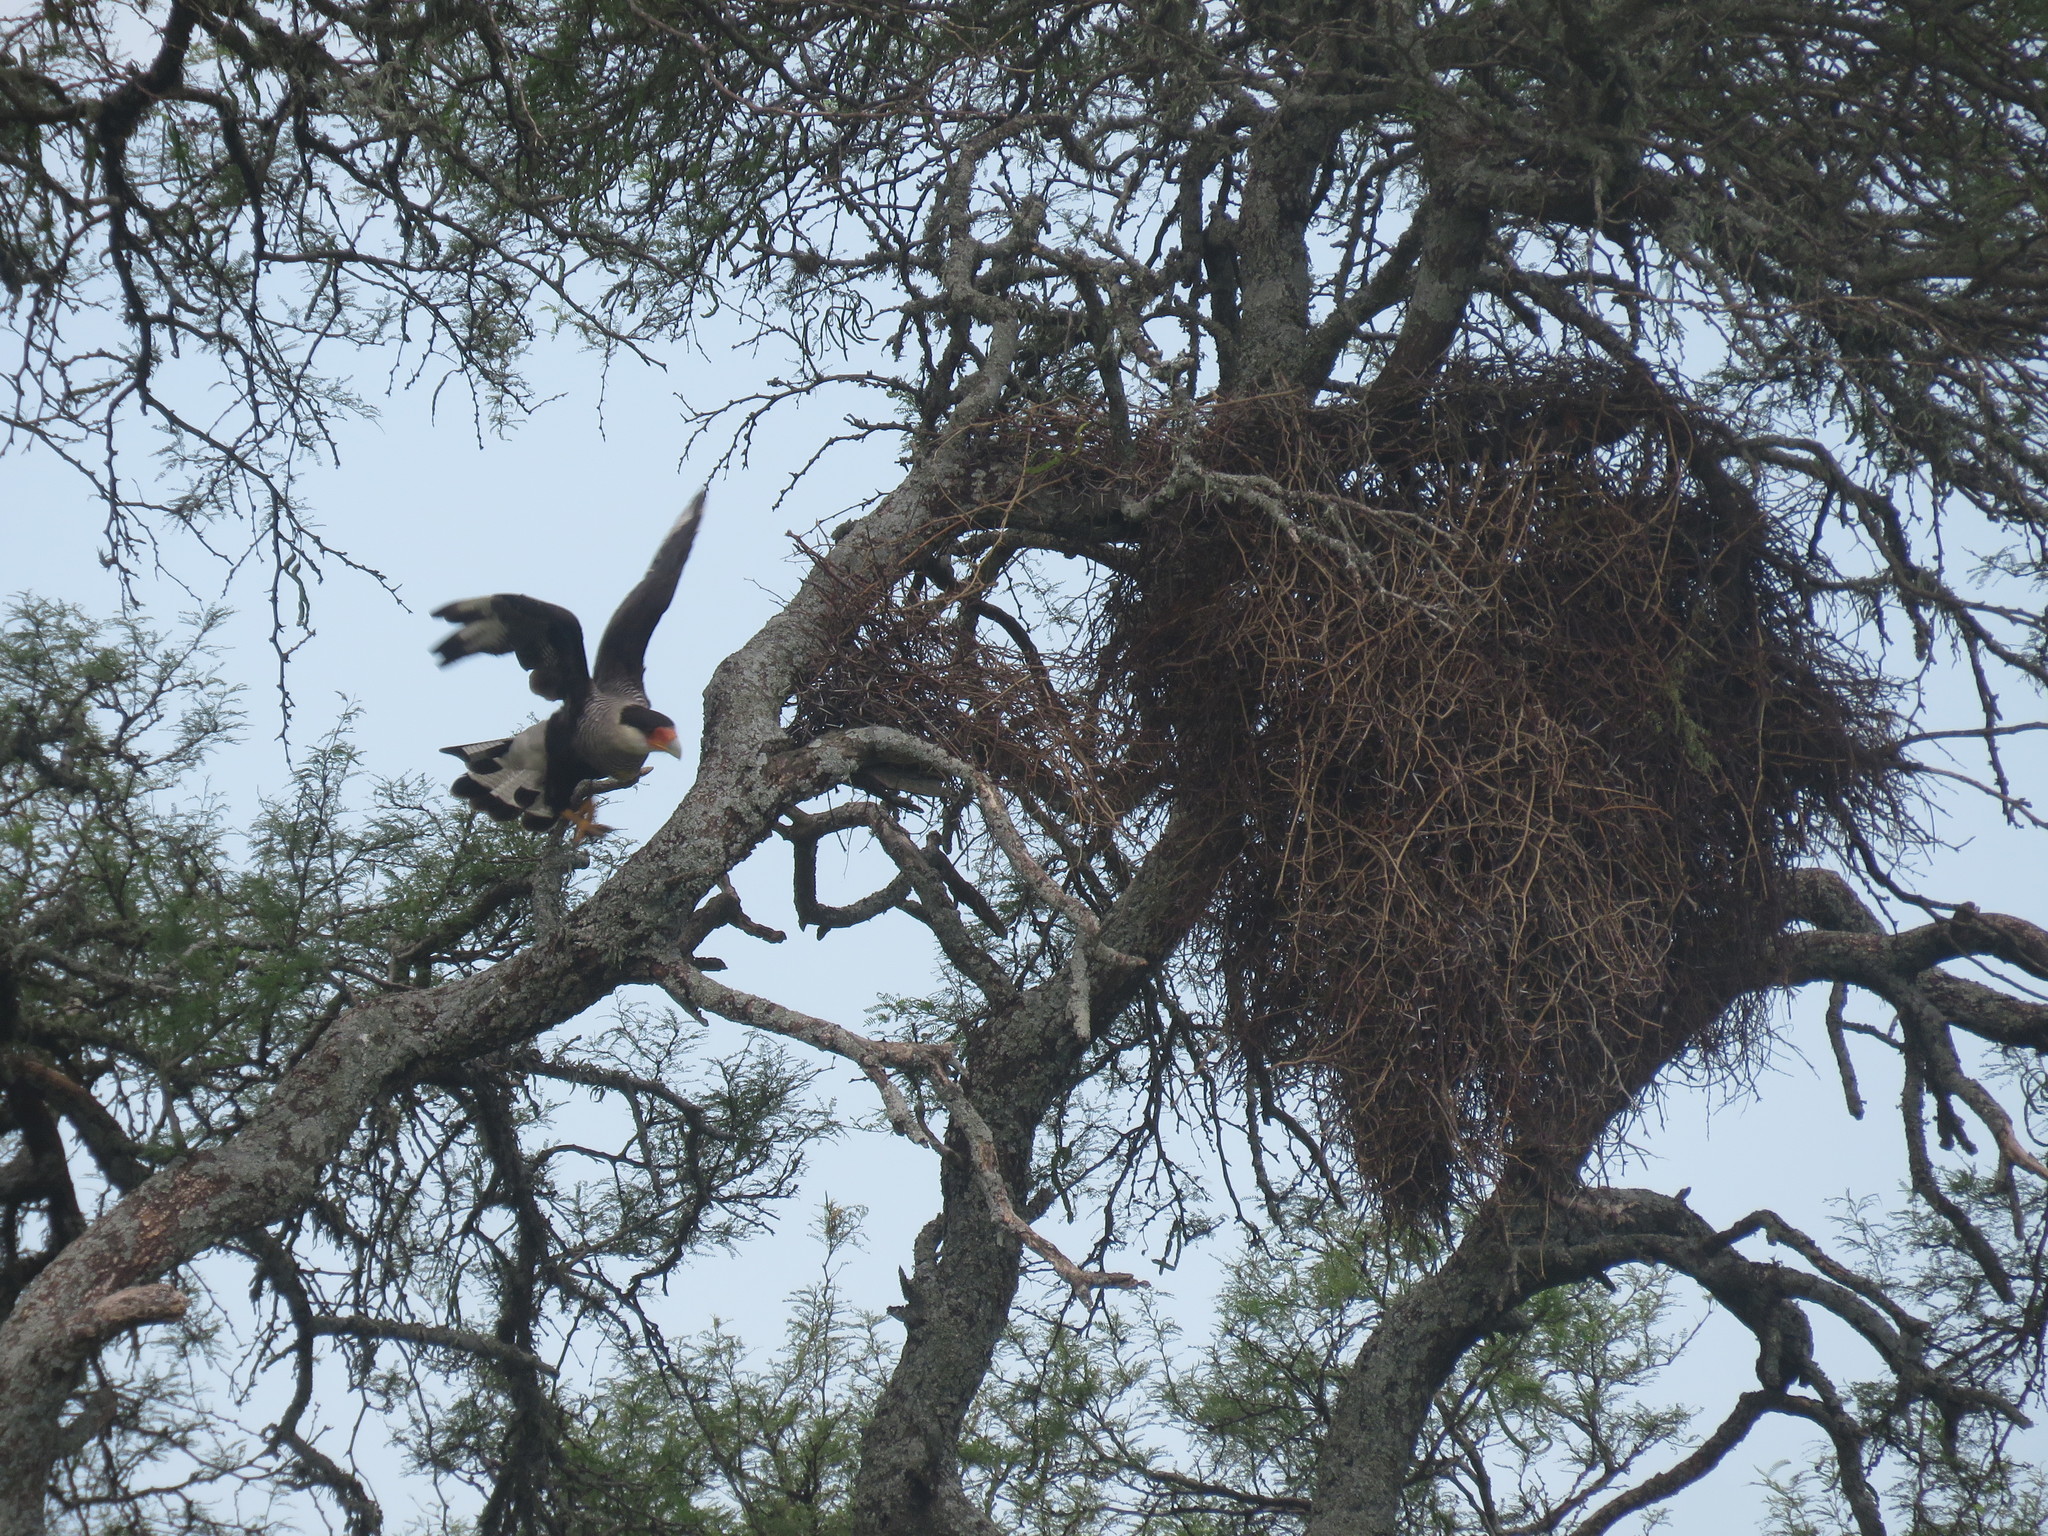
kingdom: Animalia
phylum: Chordata
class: Aves
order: Falconiformes
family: Falconidae
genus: Caracara
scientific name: Caracara plancus
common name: Southern caracara
